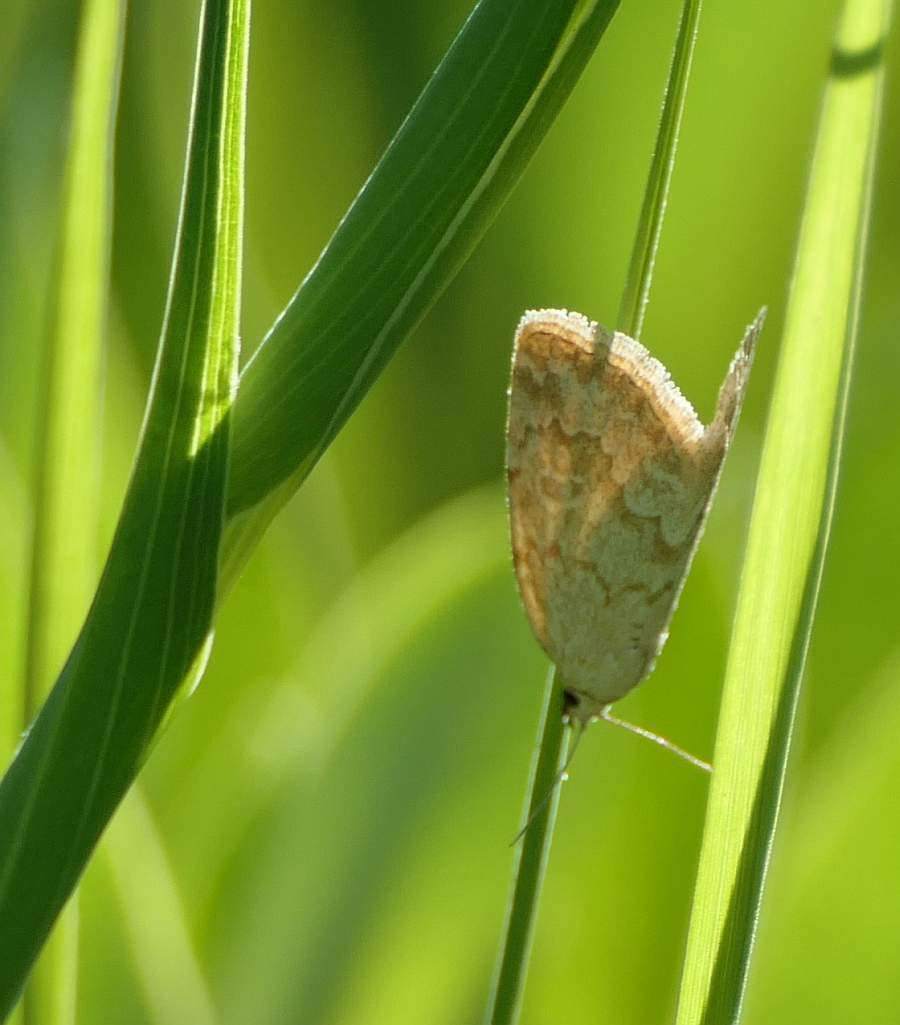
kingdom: Animalia
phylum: Arthropoda
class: Insecta
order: Lepidoptera
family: Noctuidae
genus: Protodeltote
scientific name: Protodeltote albidula
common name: Pale glyph
